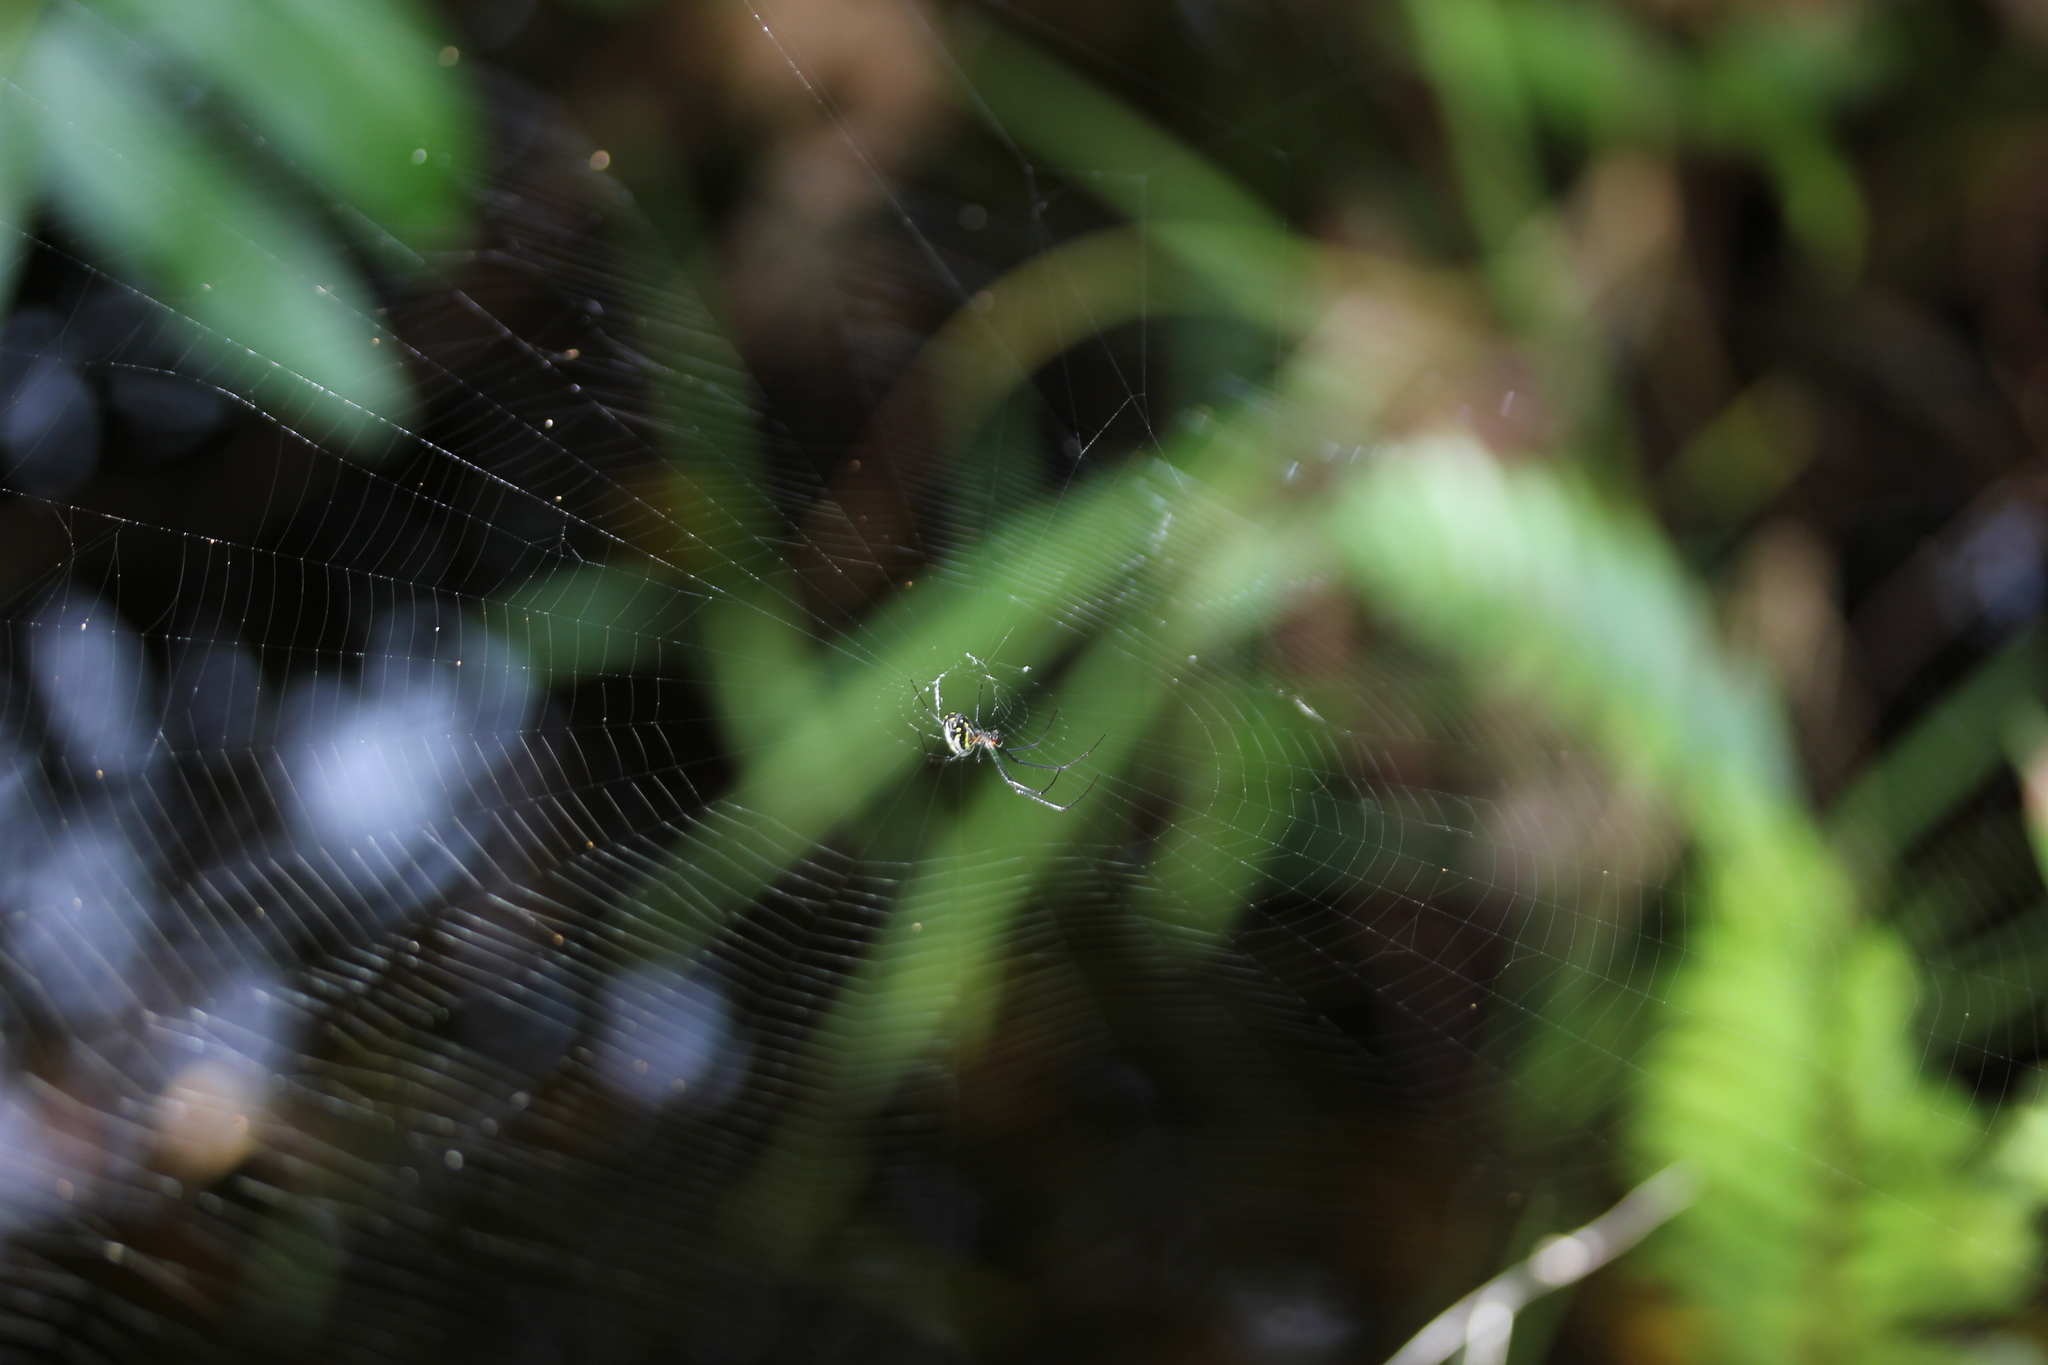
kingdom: Animalia
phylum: Arthropoda
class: Arachnida
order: Araneae
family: Tetragnathidae
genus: Leucauge
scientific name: Leucauge argyra
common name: Longjawed orb weavers
